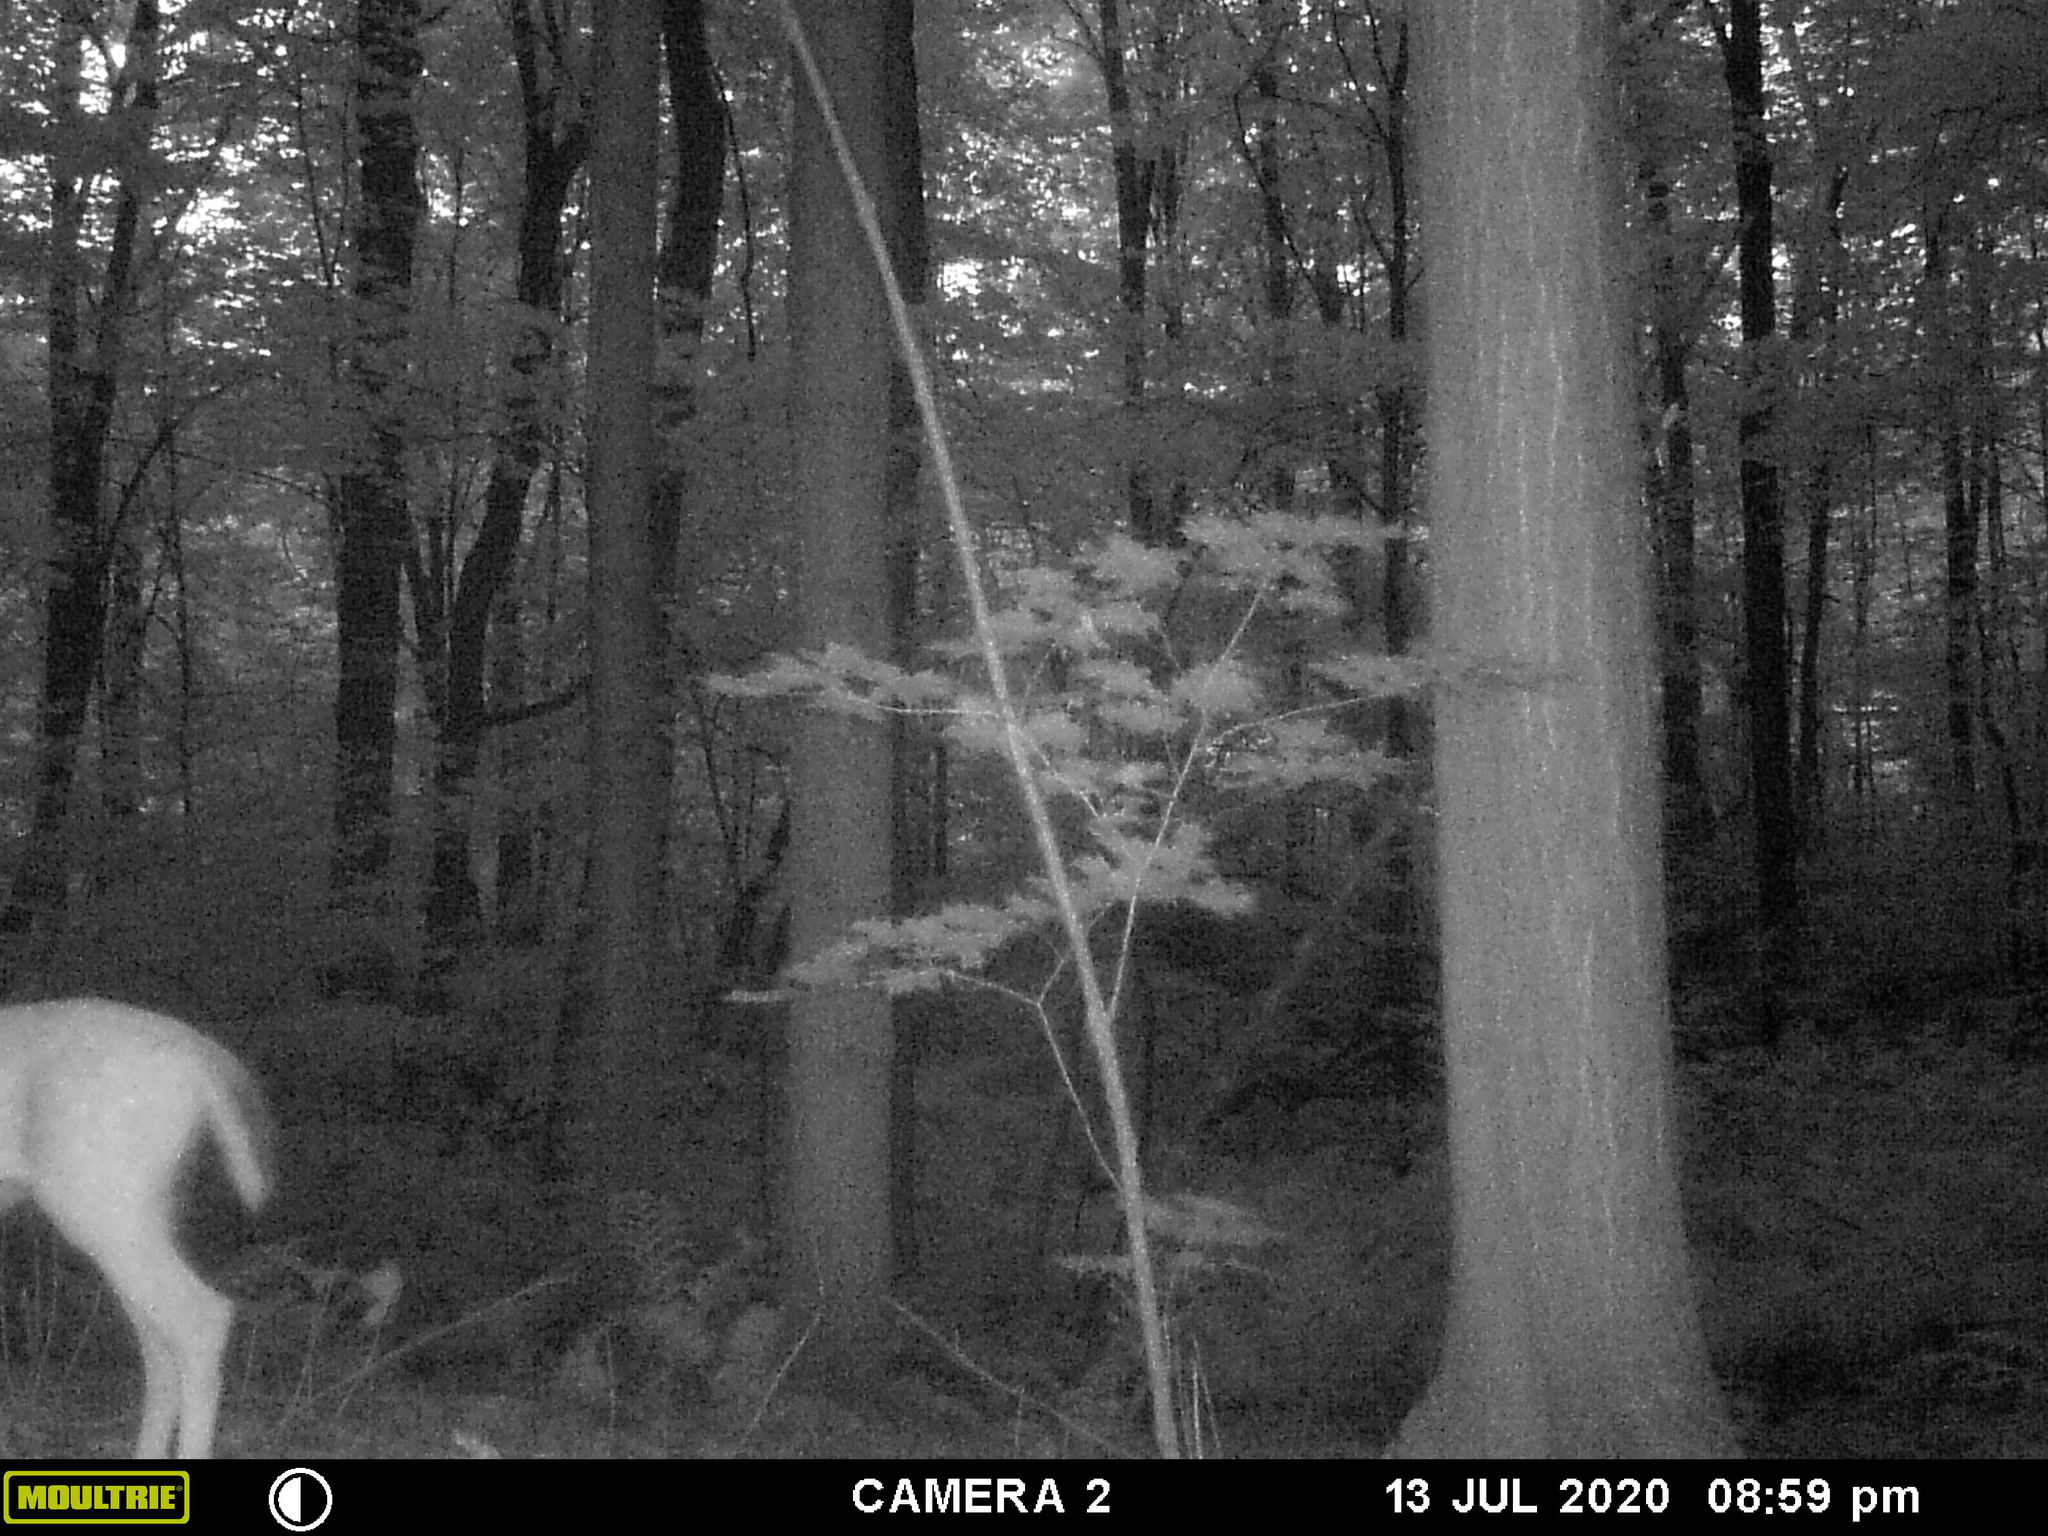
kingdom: Animalia
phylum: Chordata
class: Mammalia
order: Artiodactyla
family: Cervidae
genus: Odocoileus
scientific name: Odocoileus virginianus
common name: White-tailed deer
